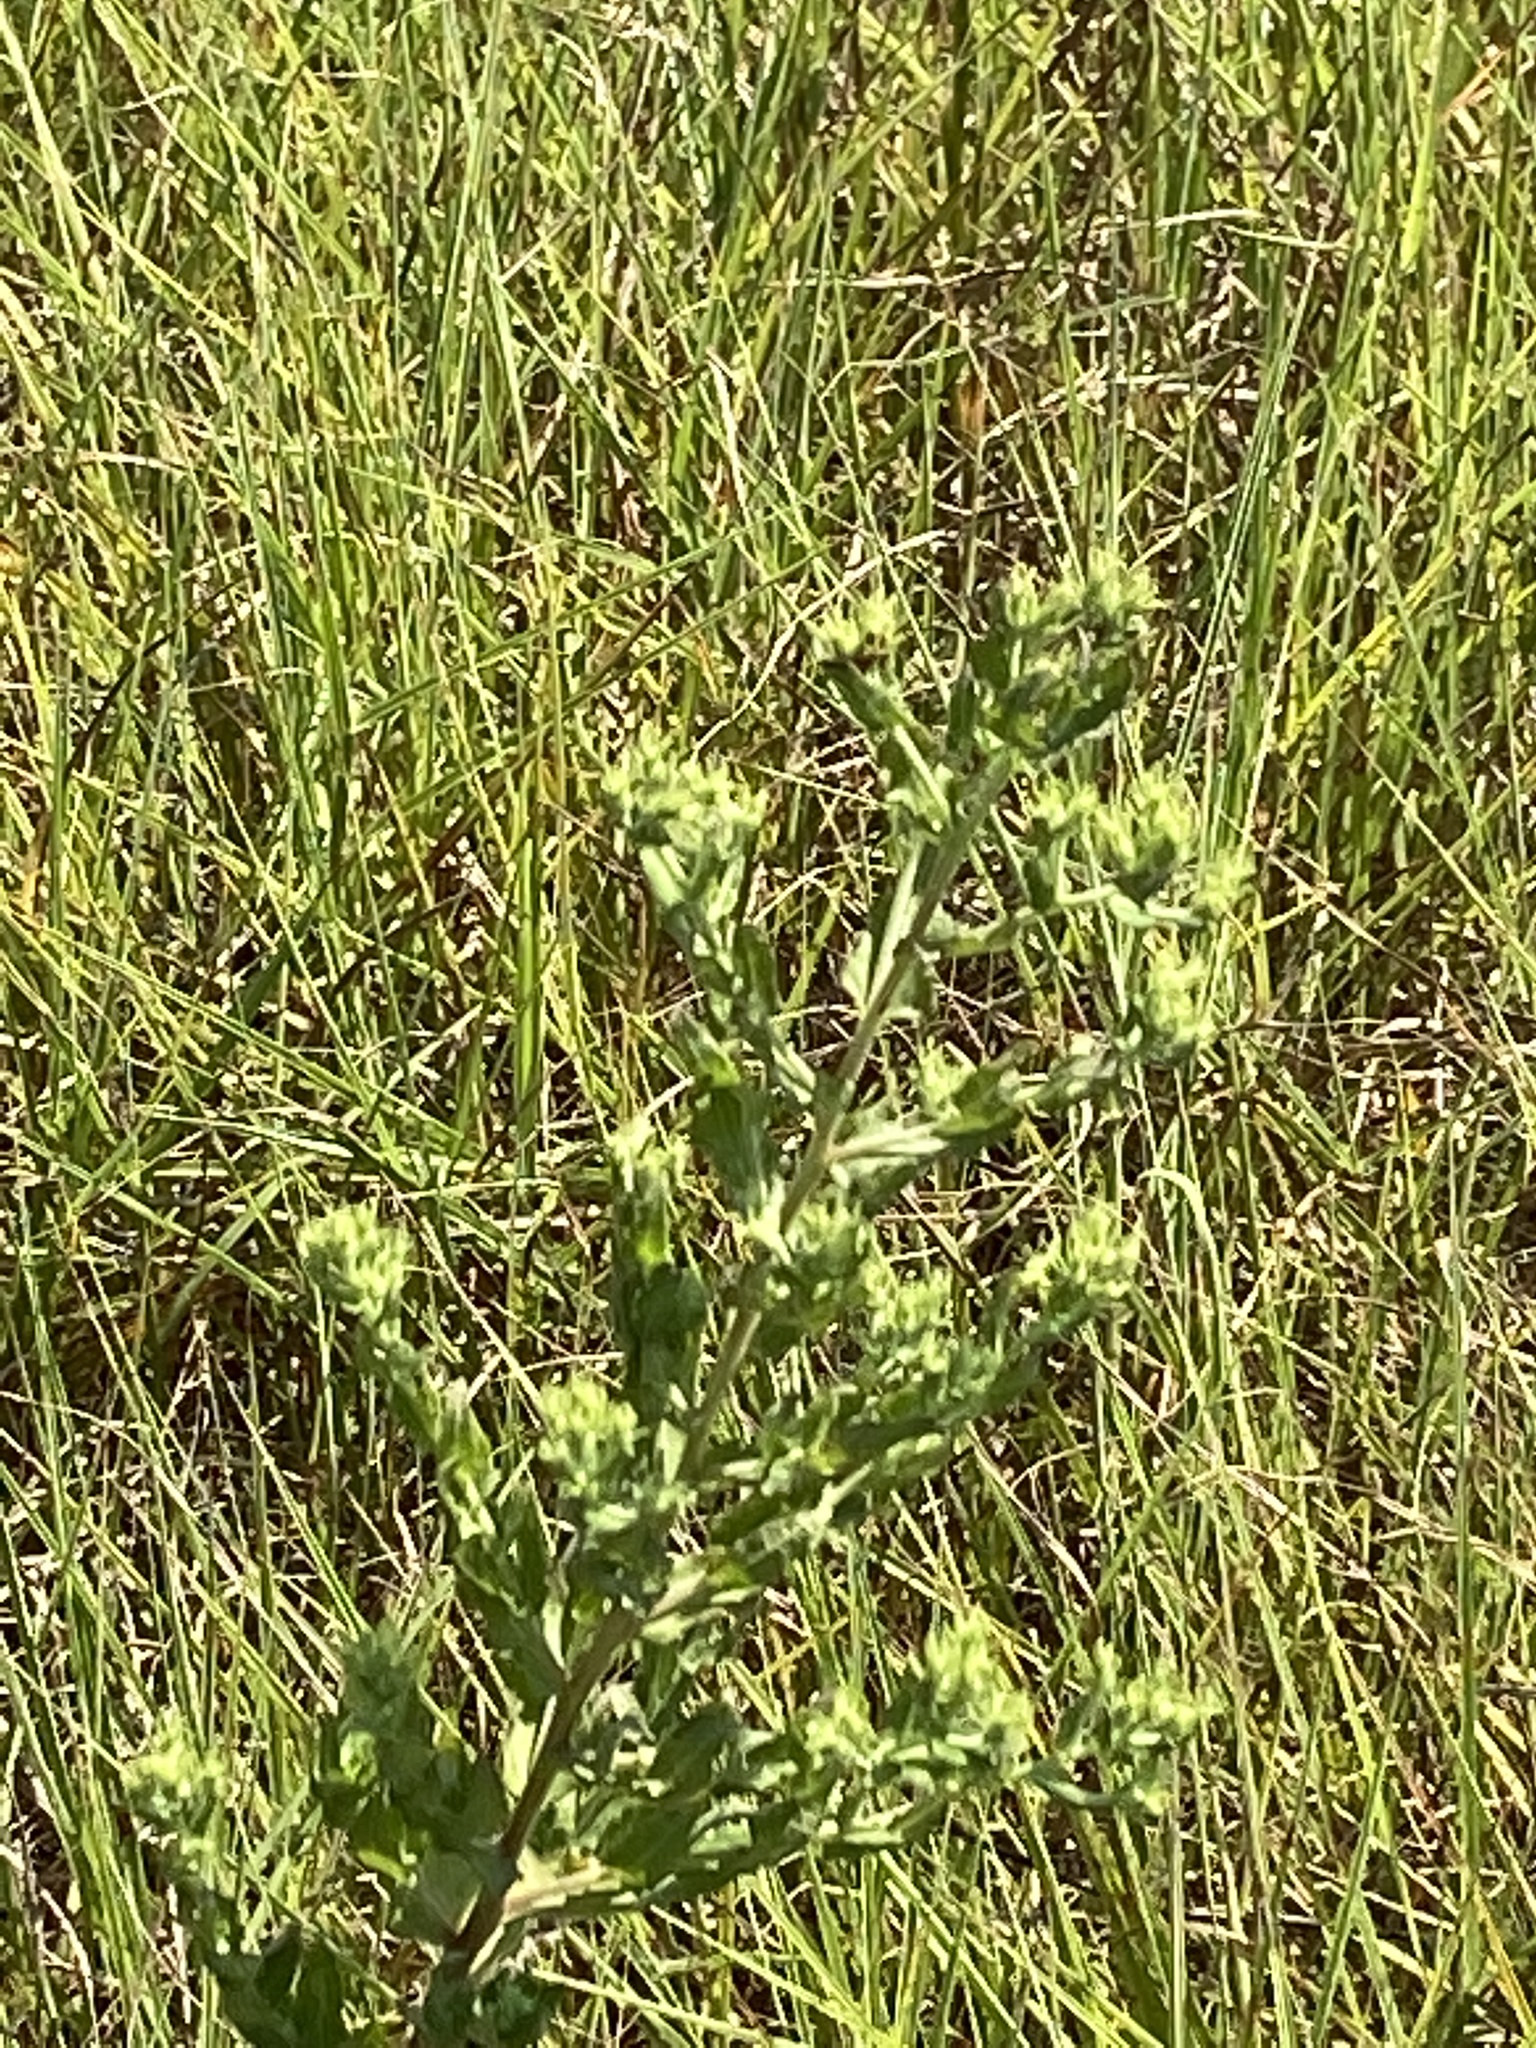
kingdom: Plantae
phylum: Tracheophyta
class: Magnoliopsida
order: Asterales
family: Asteraceae
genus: Brickellia
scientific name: Brickellia eupatorioides
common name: False boneset
